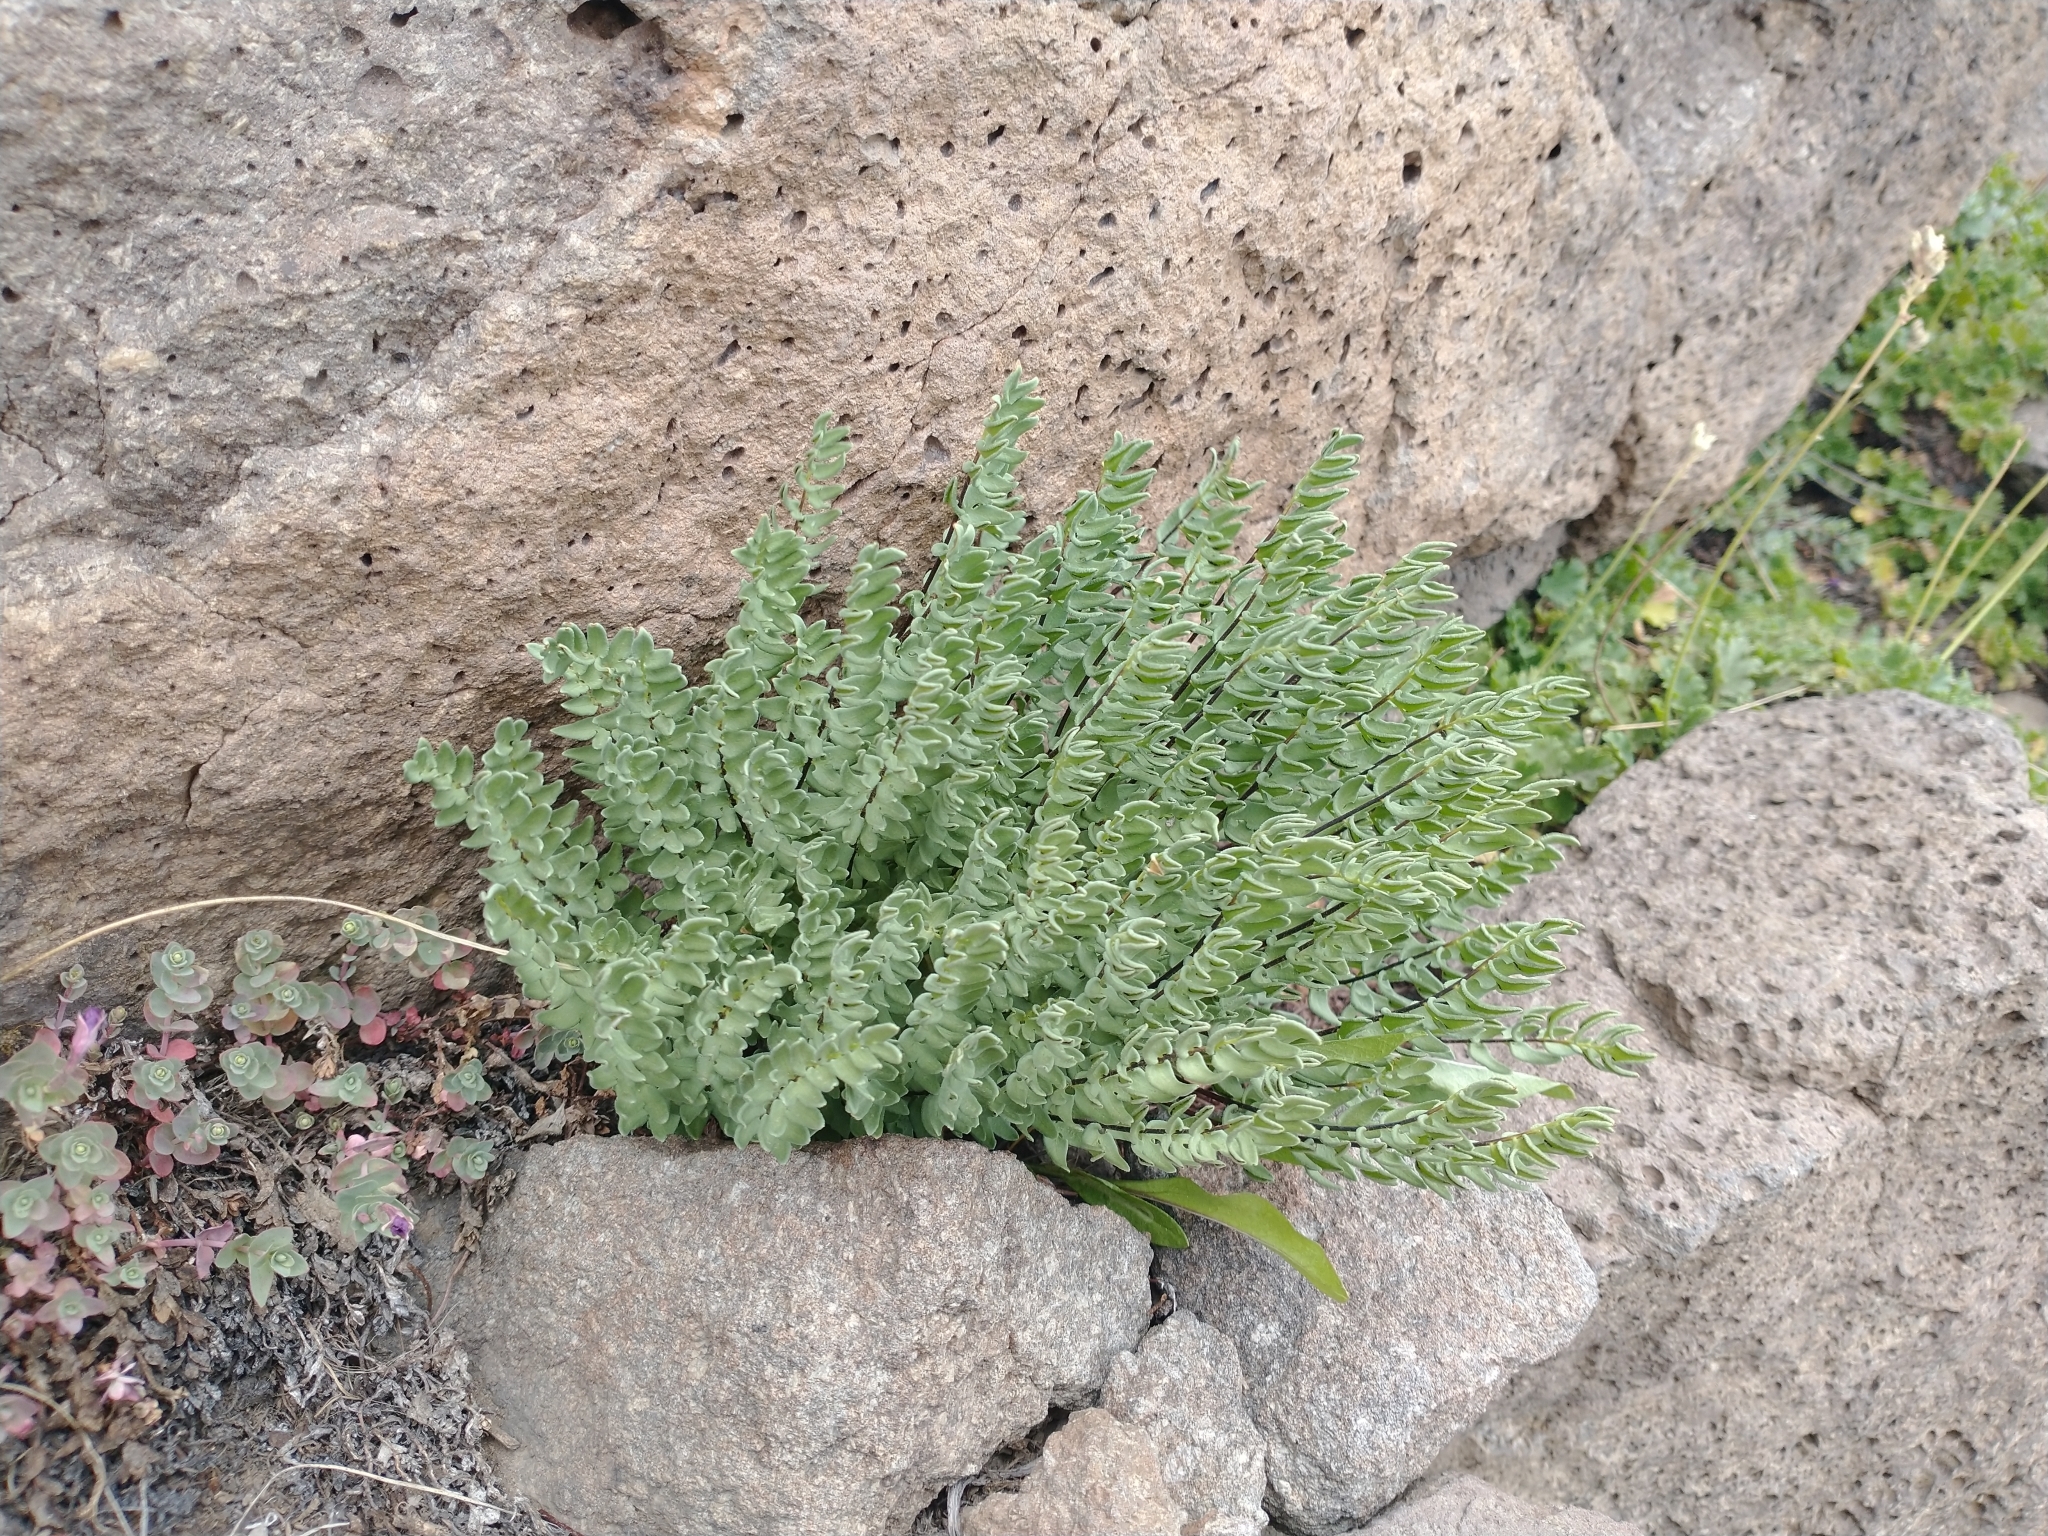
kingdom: Plantae
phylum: Tracheophyta
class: Polypodiopsida
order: Polypodiales
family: Pteridaceae
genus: Pellaea
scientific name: Pellaea breweri
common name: Brewer's cliffbrake
